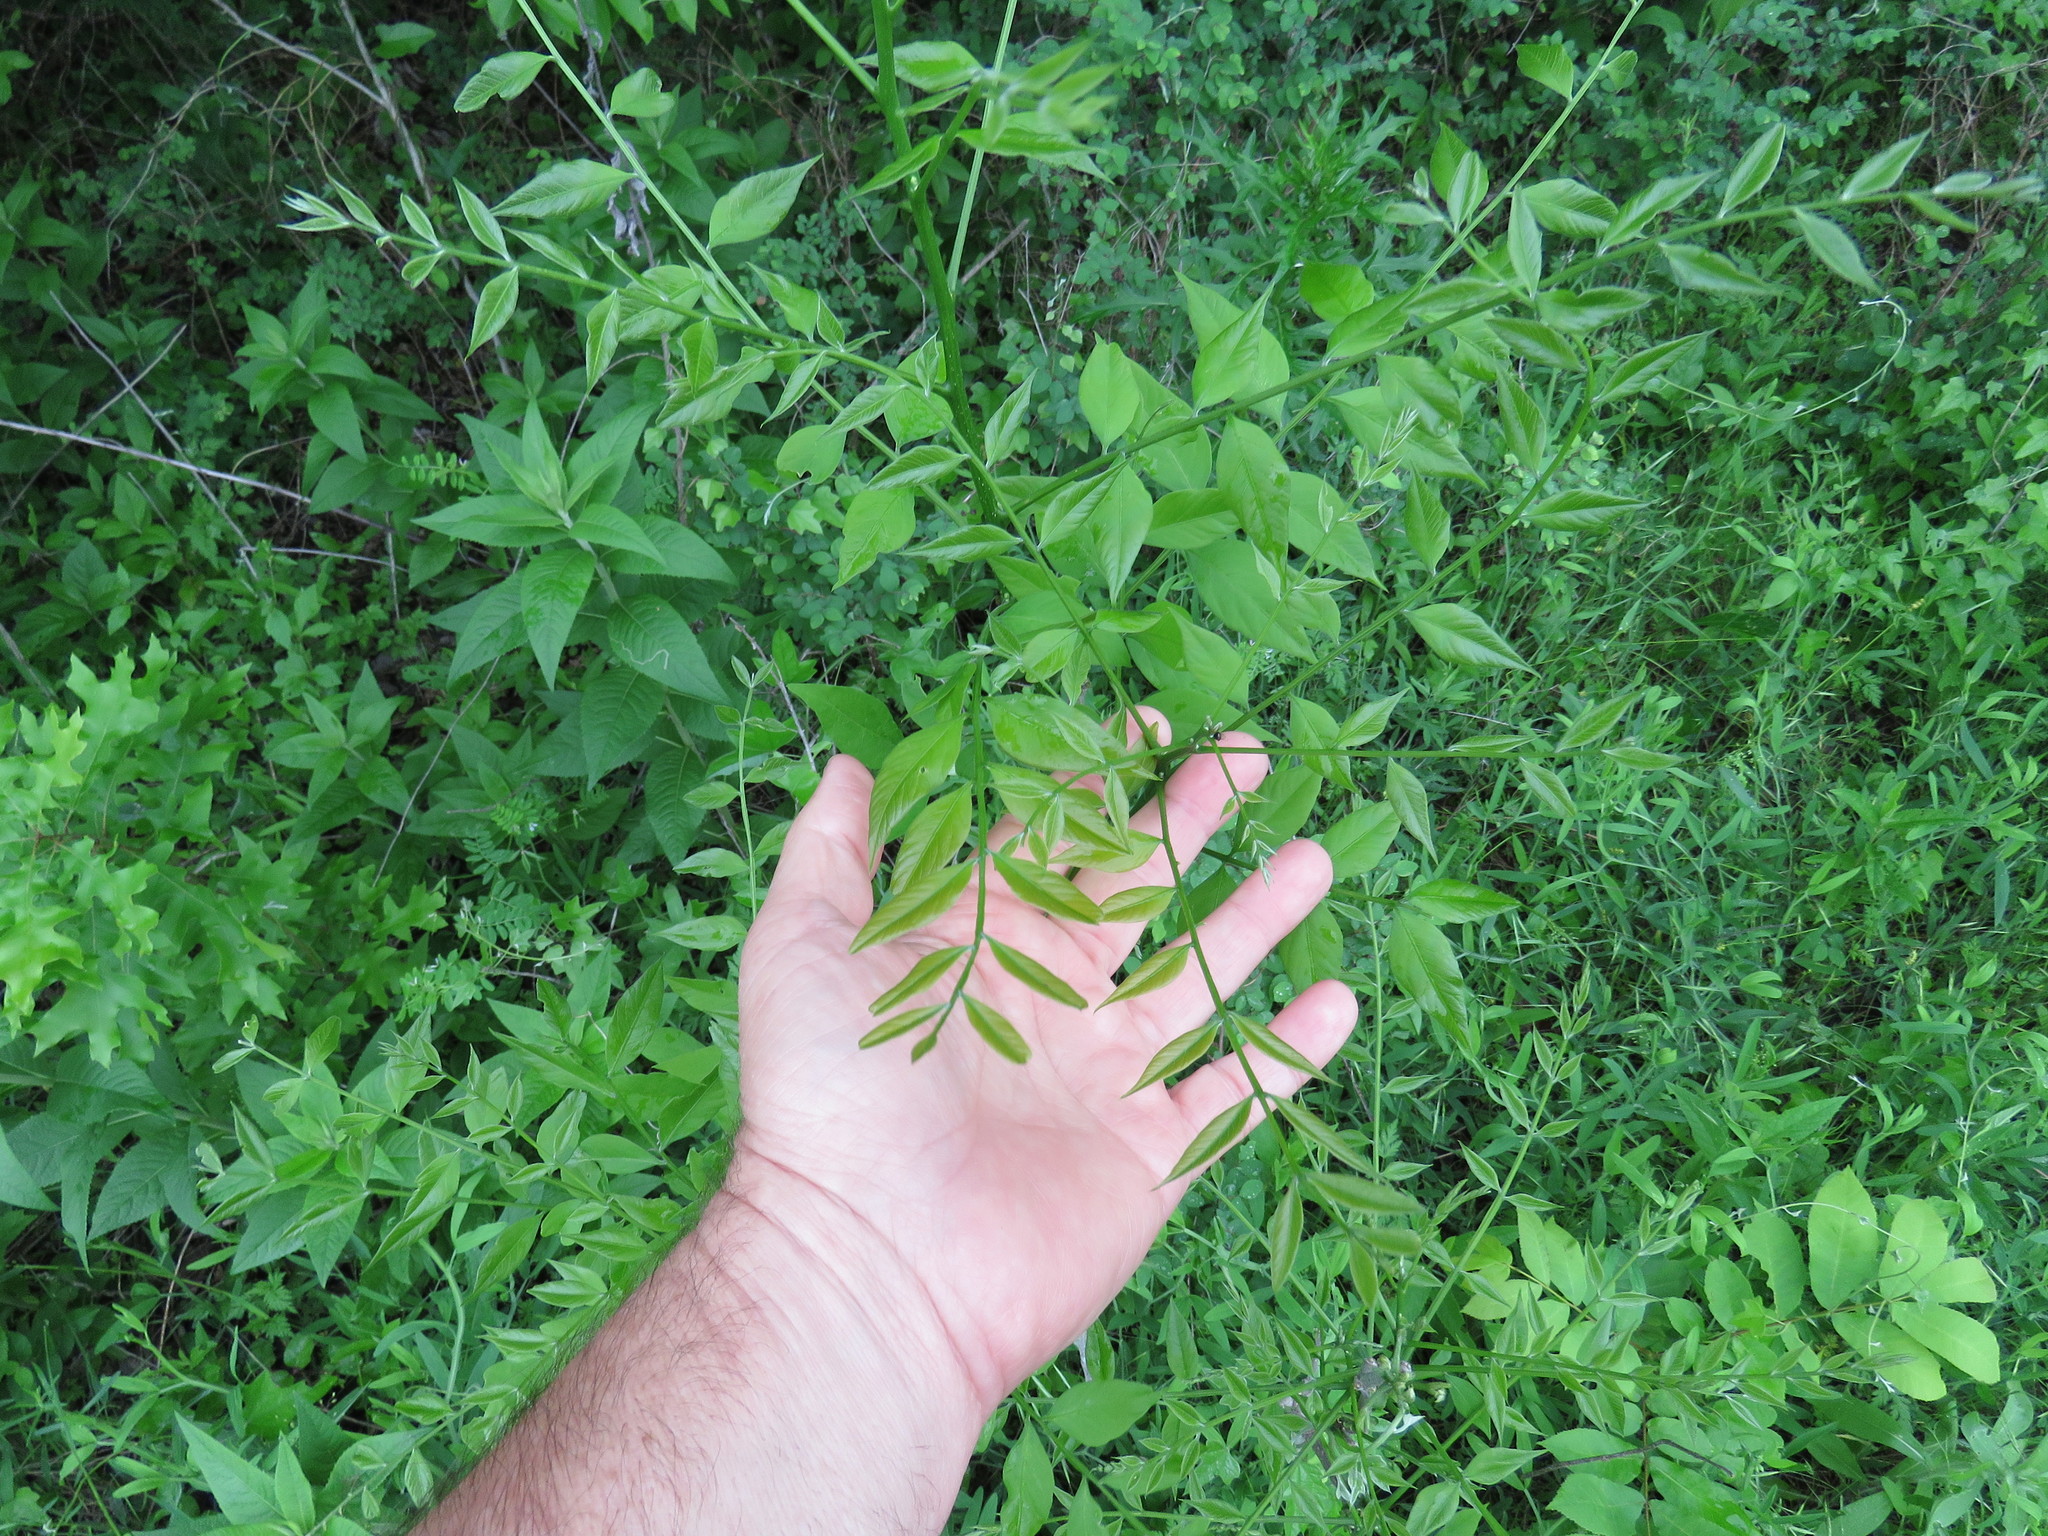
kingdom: Plantae
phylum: Tracheophyta
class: Magnoliopsida
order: Sapindales
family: Sapindaceae
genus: Sapindus
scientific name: Sapindus drummondii
